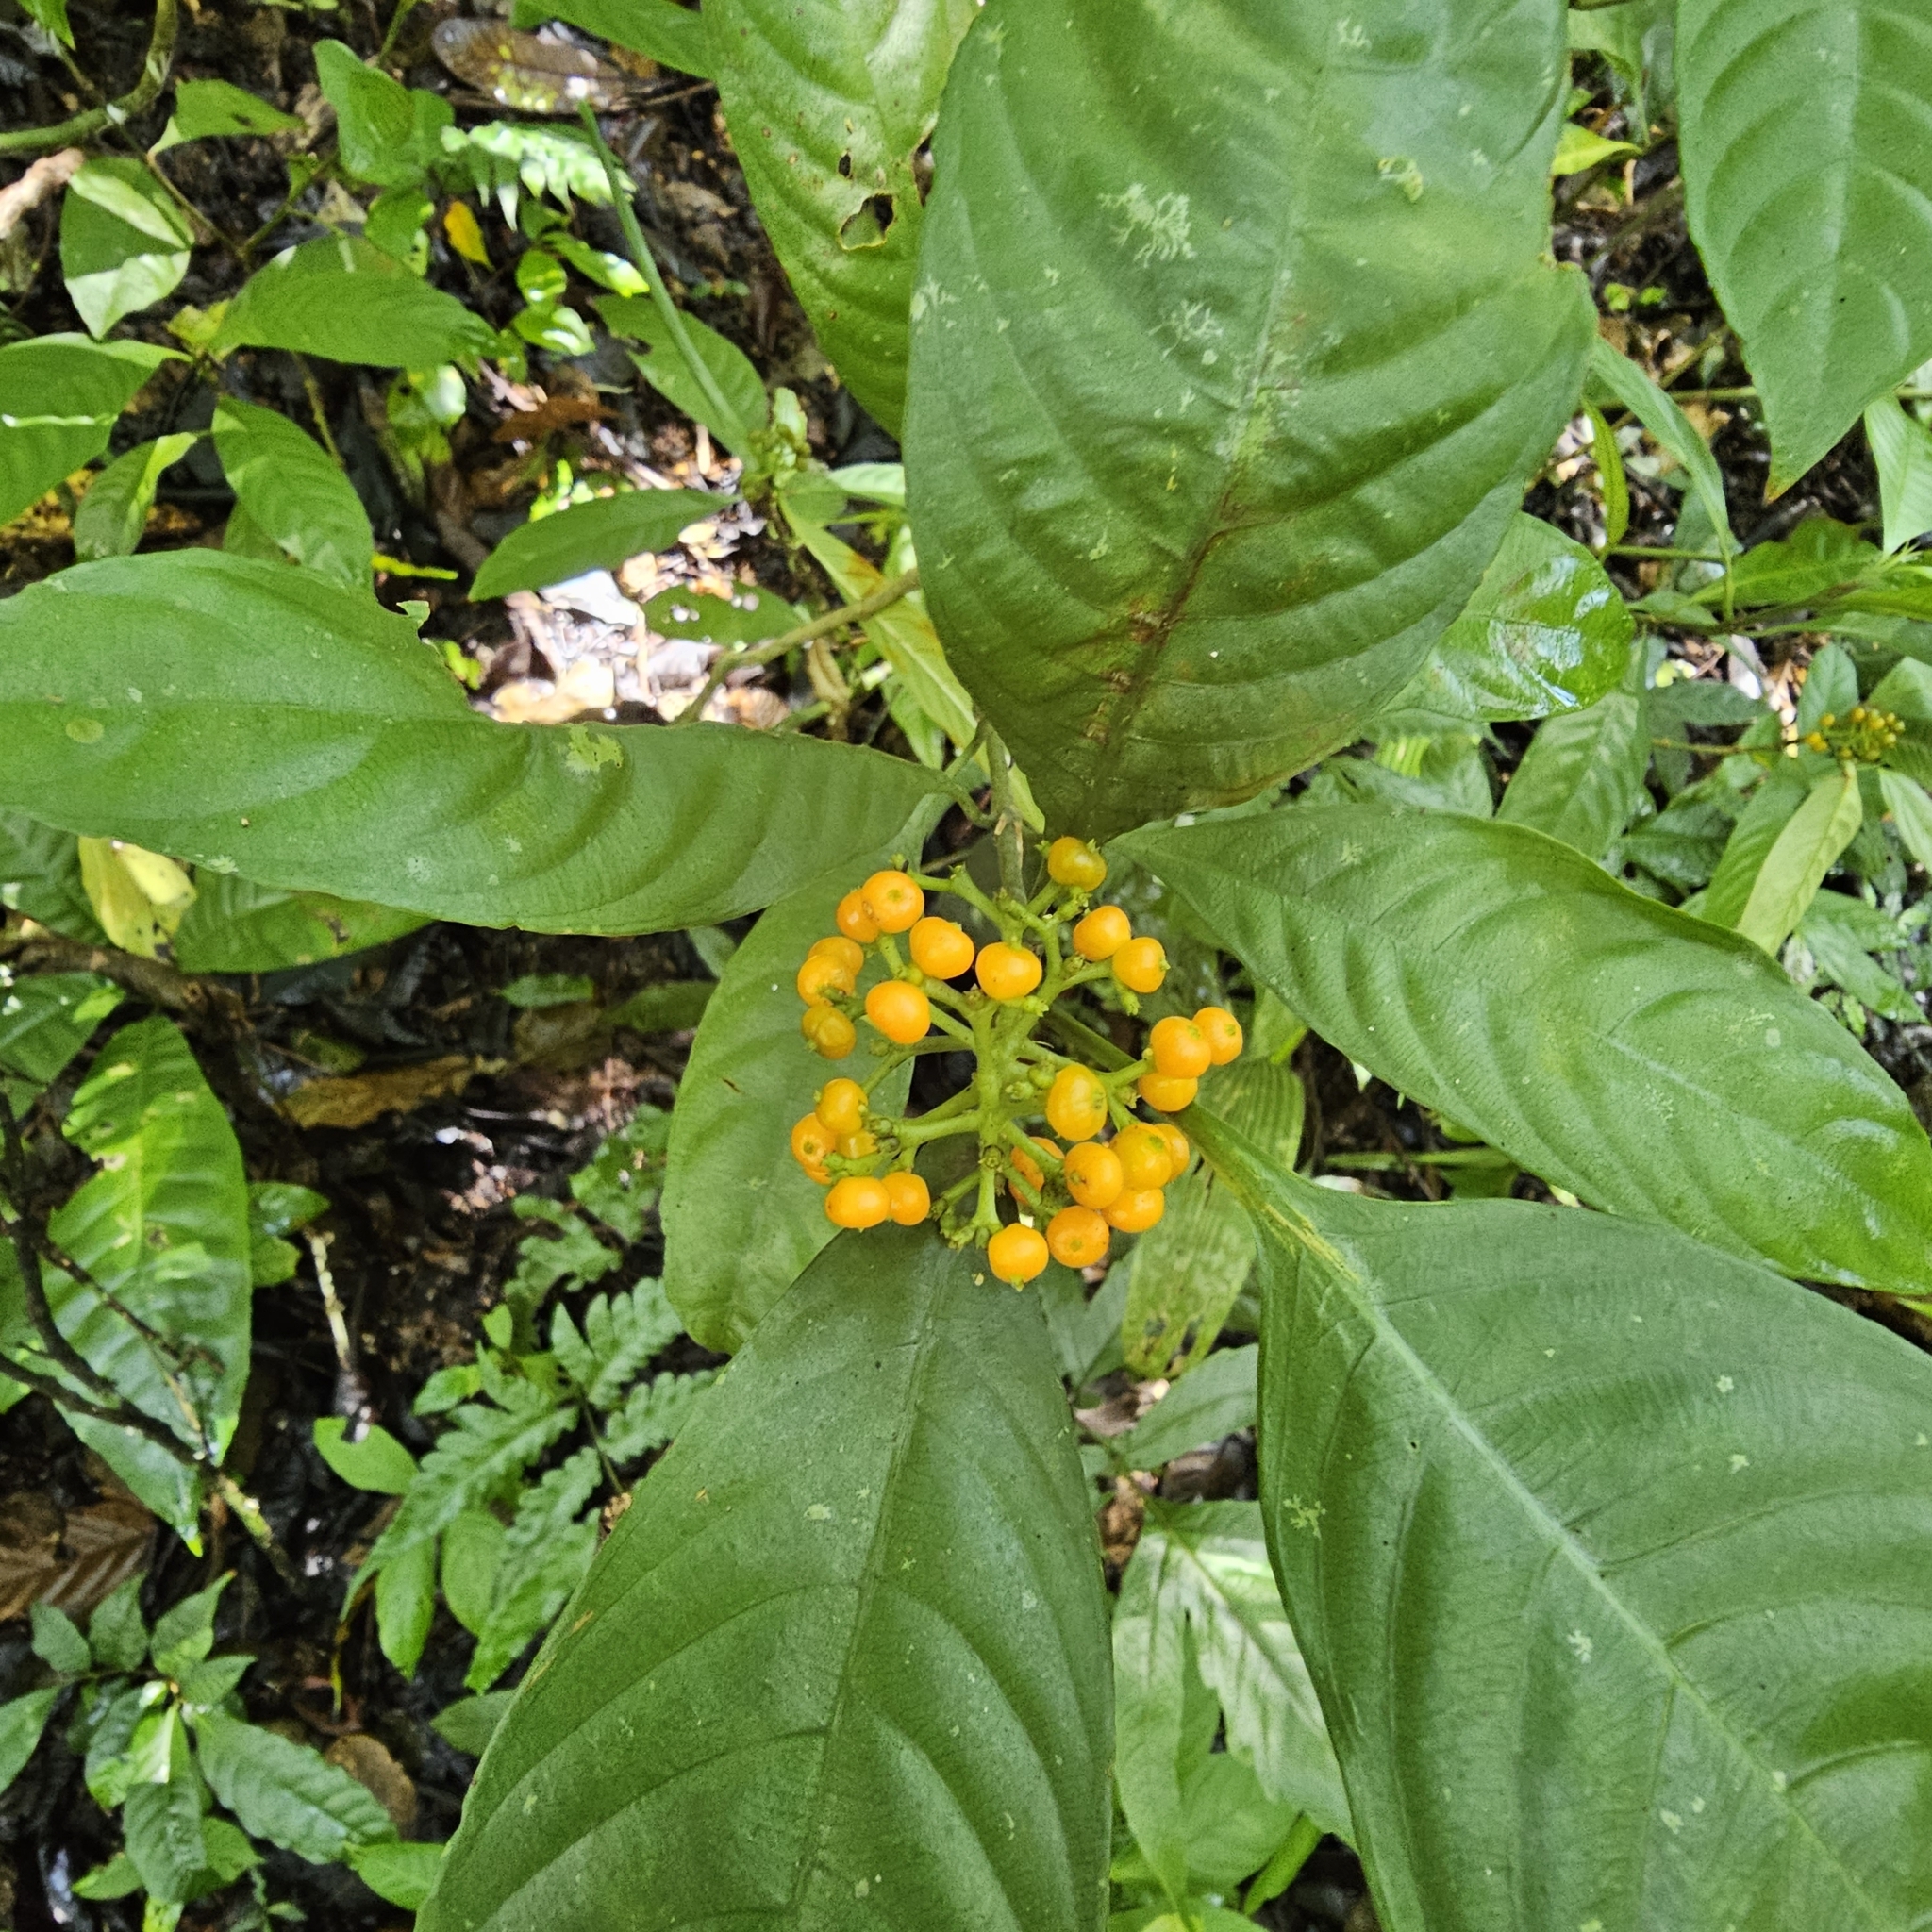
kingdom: Plantae
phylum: Tracheophyta
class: Magnoliopsida
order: Gentianales
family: Rubiaceae
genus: Palicourea
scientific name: Palicourea racemosa
